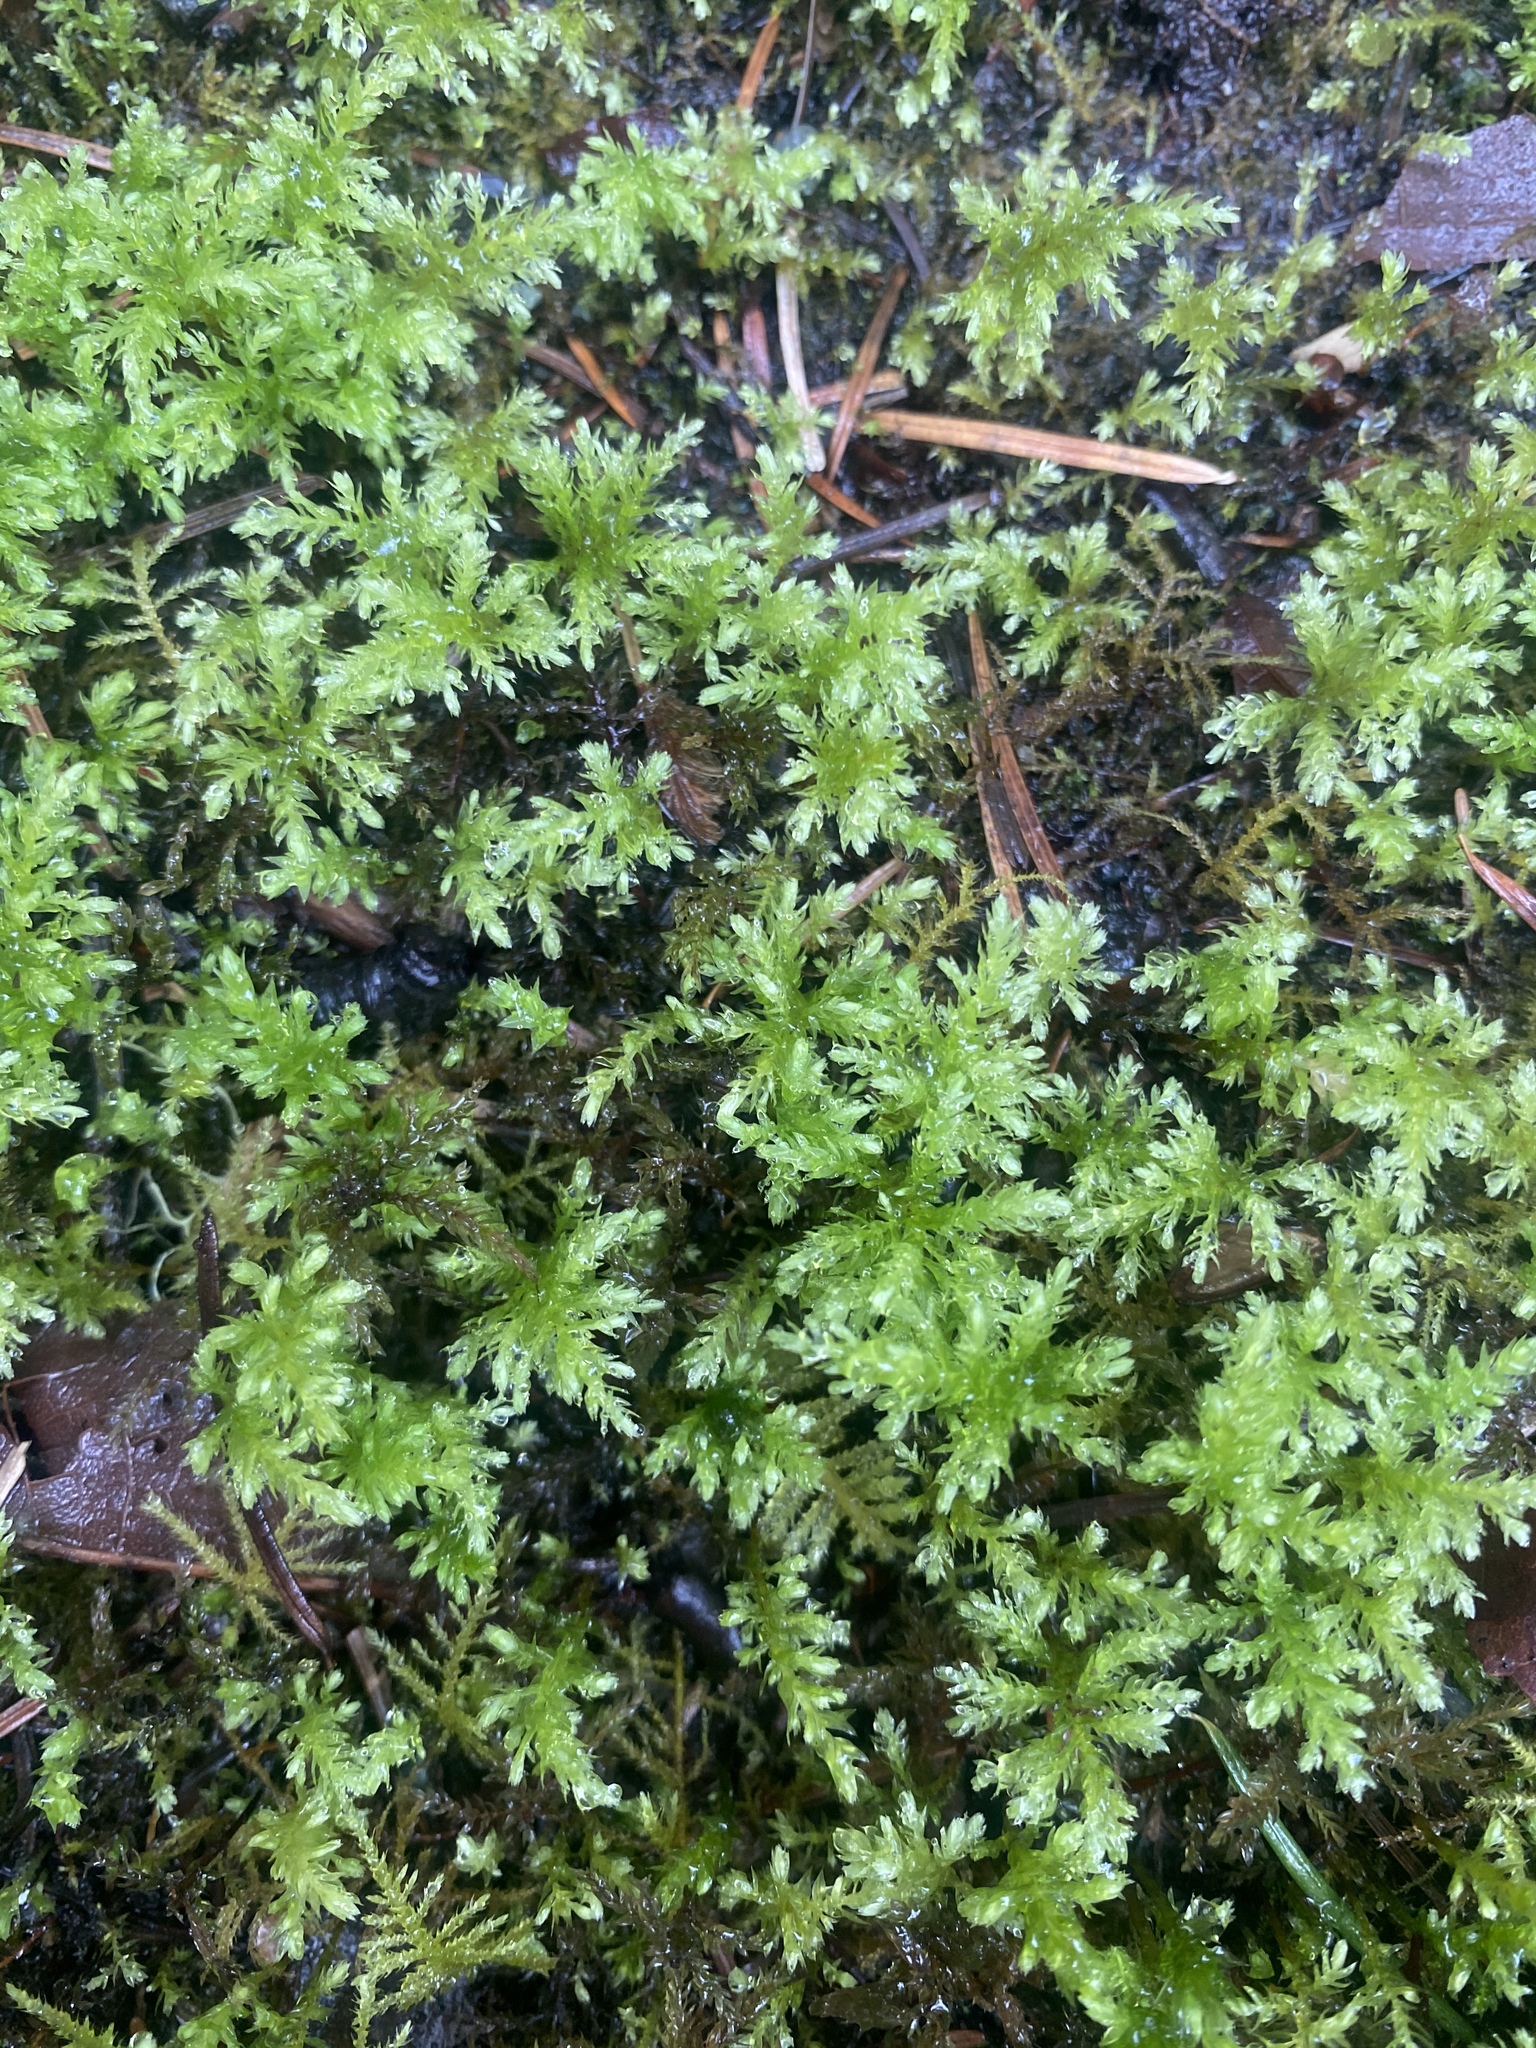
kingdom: Plantae
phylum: Bryophyta
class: Bryopsida
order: Bryales
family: Mniaceae
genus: Leucolepis
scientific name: Leucolepis acanthoneura
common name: Leucolepis umbrella moss
